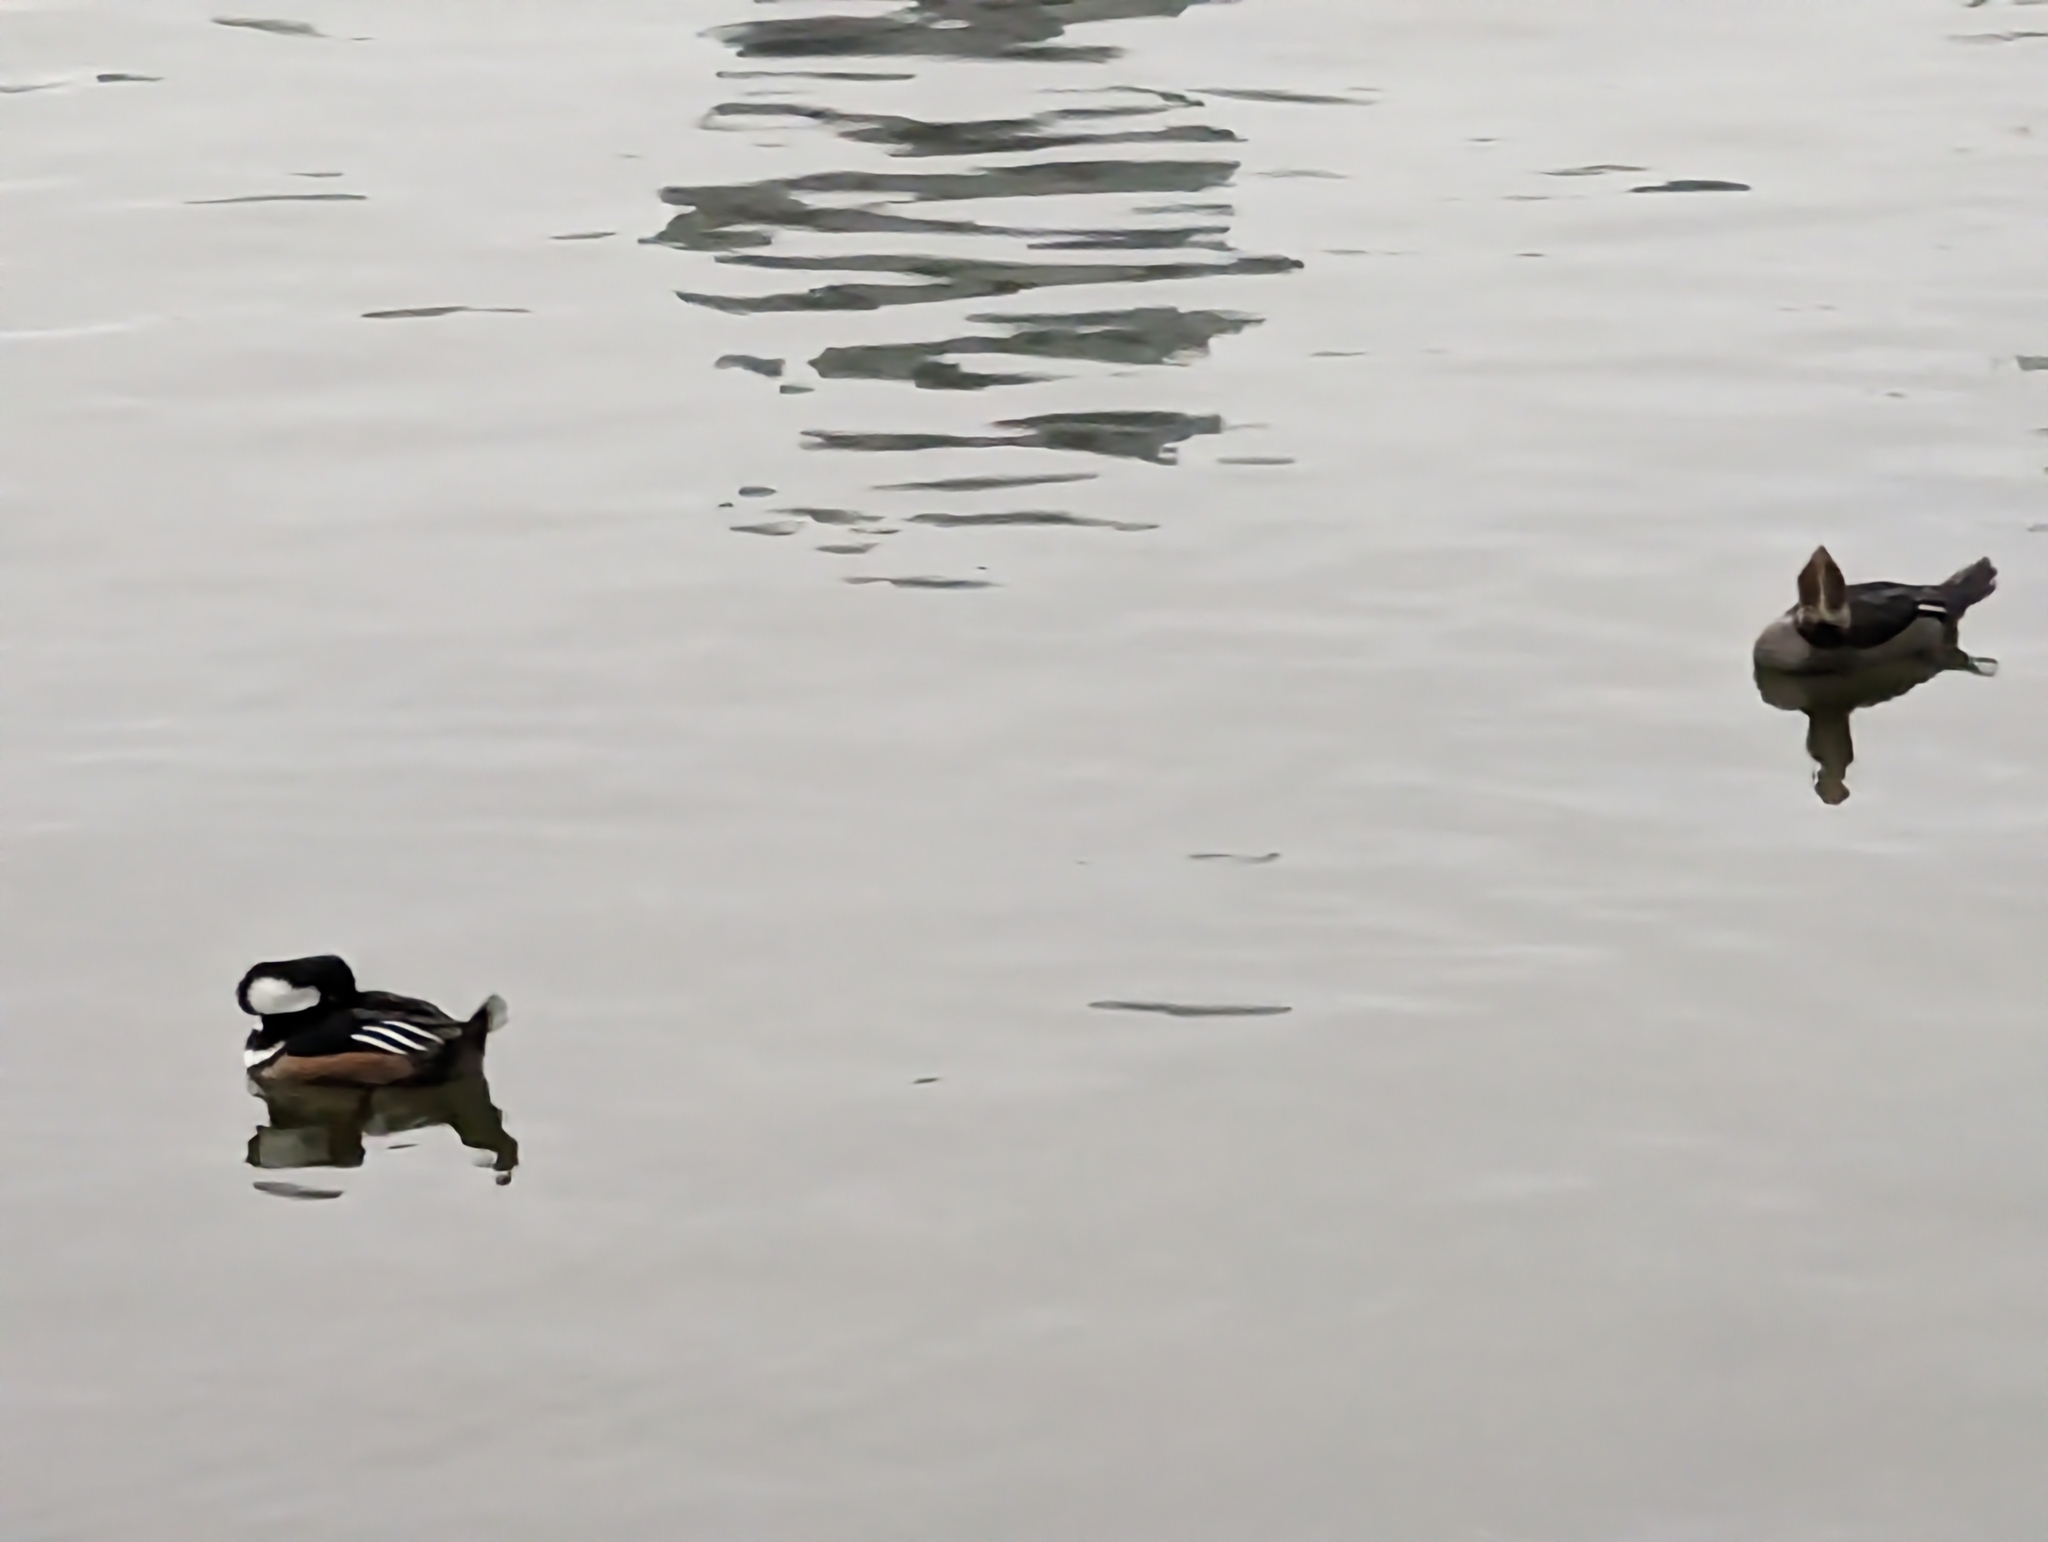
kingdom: Animalia
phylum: Chordata
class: Aves
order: Anseriformes
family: Anatidae
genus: Lophodytes
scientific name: Lophodytes cucullatus
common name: Hooded merganser
